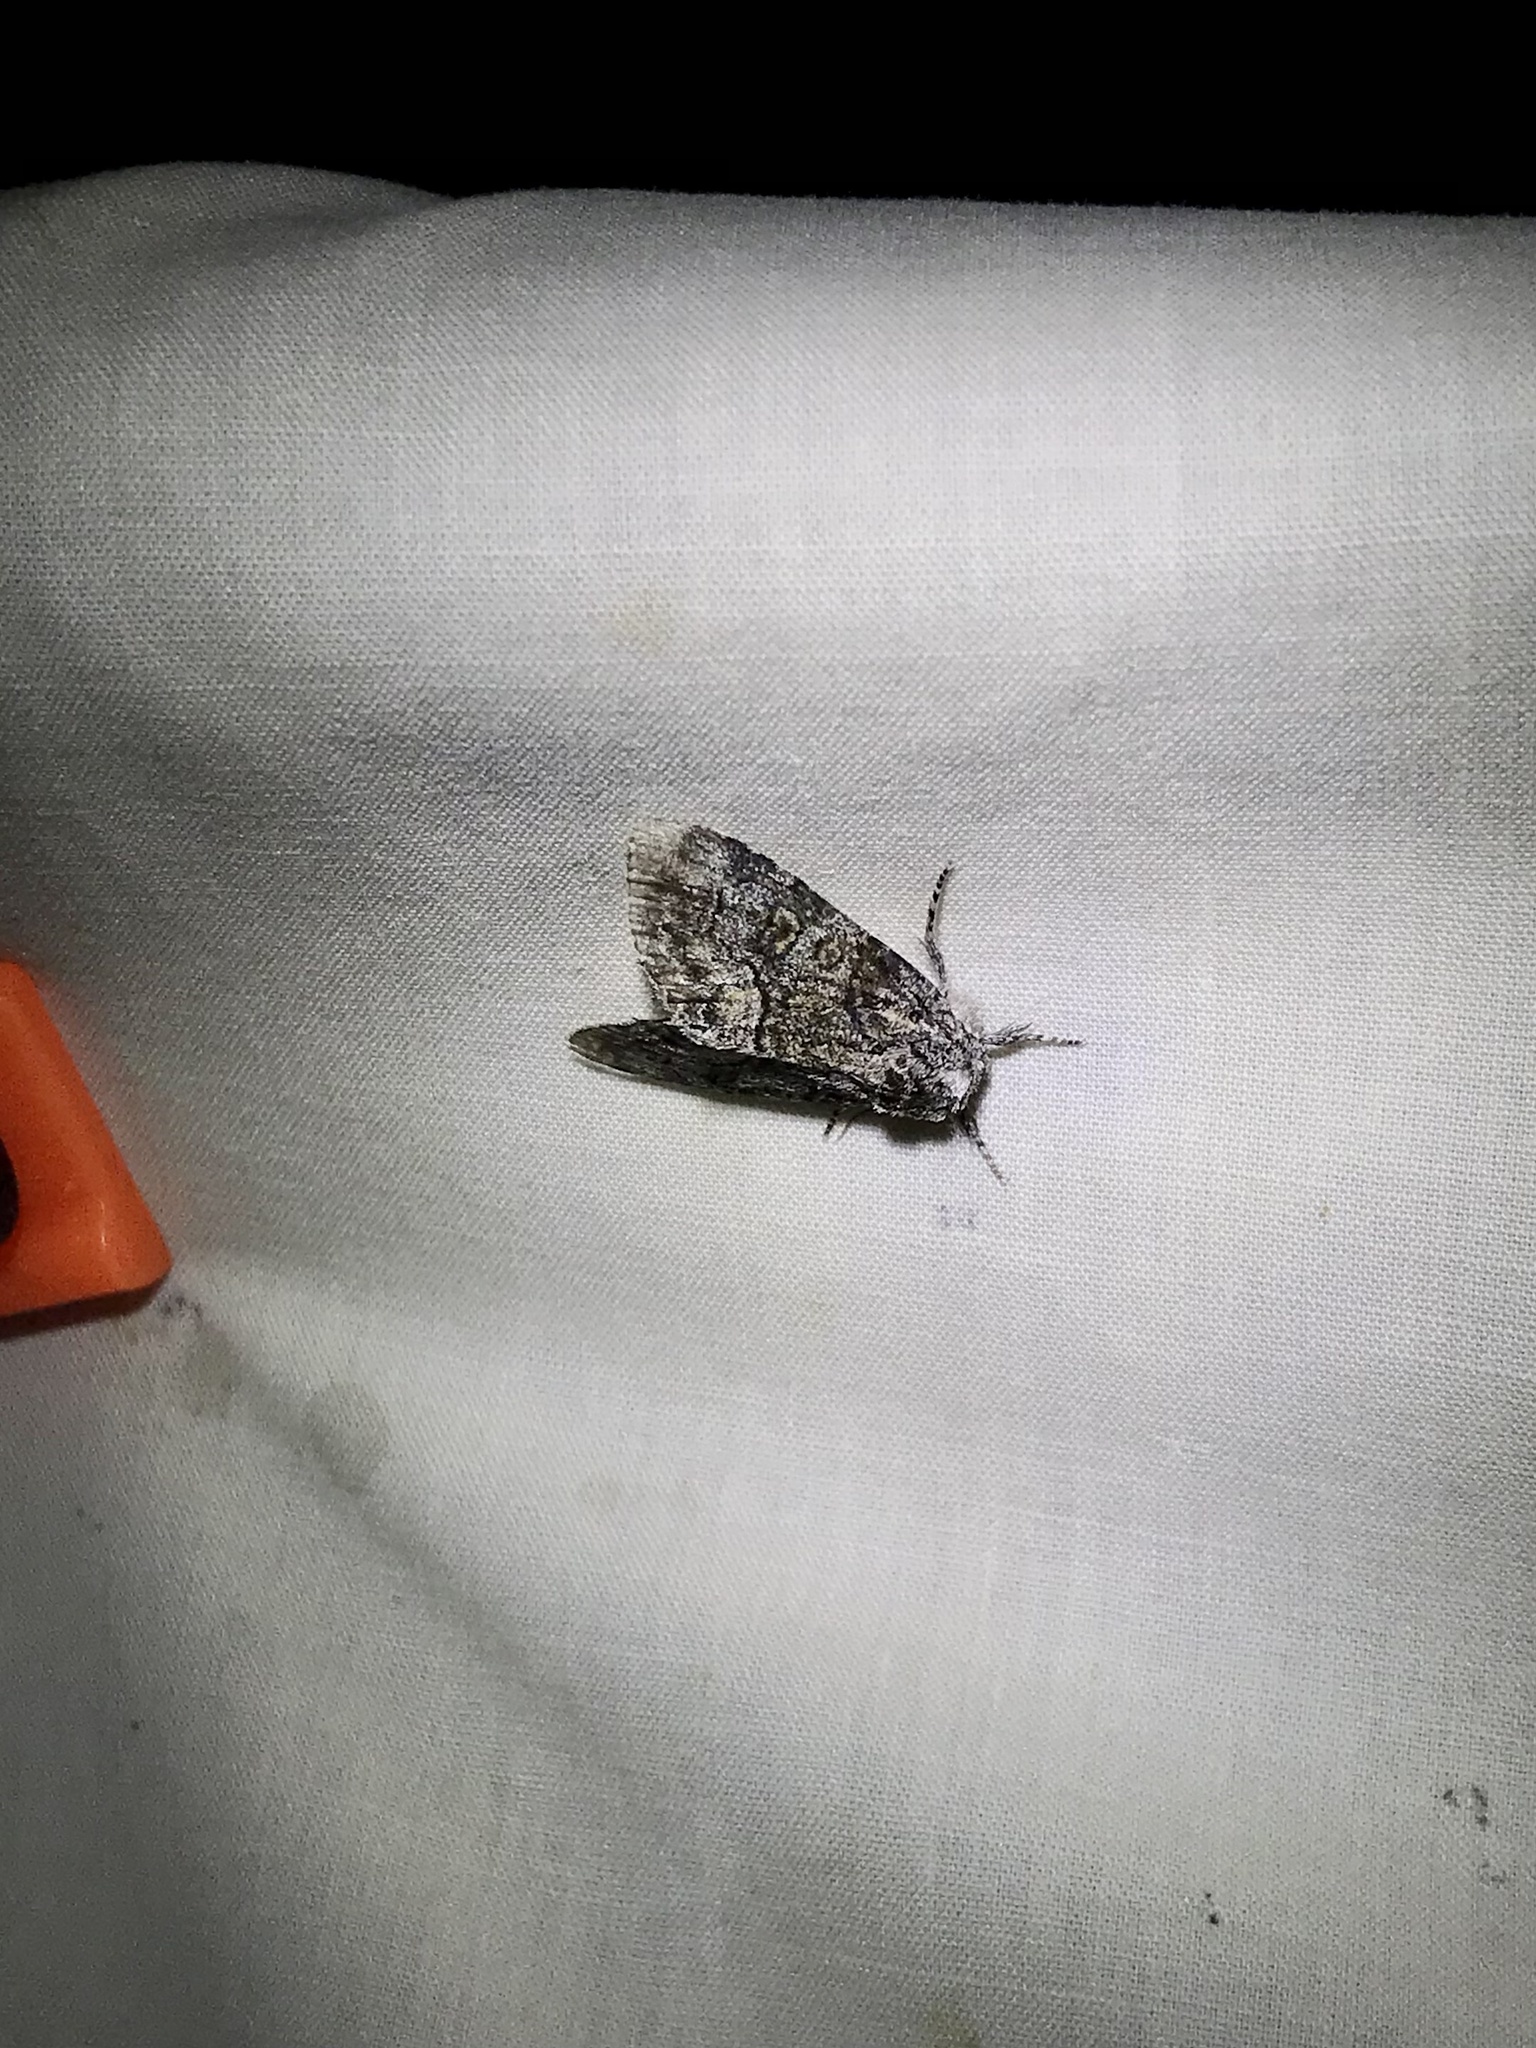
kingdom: Animalia
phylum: Arthropoda
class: Insecta
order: Lepidoptera
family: Noctuidae
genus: Raphia
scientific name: Raphia frater
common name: Brother
